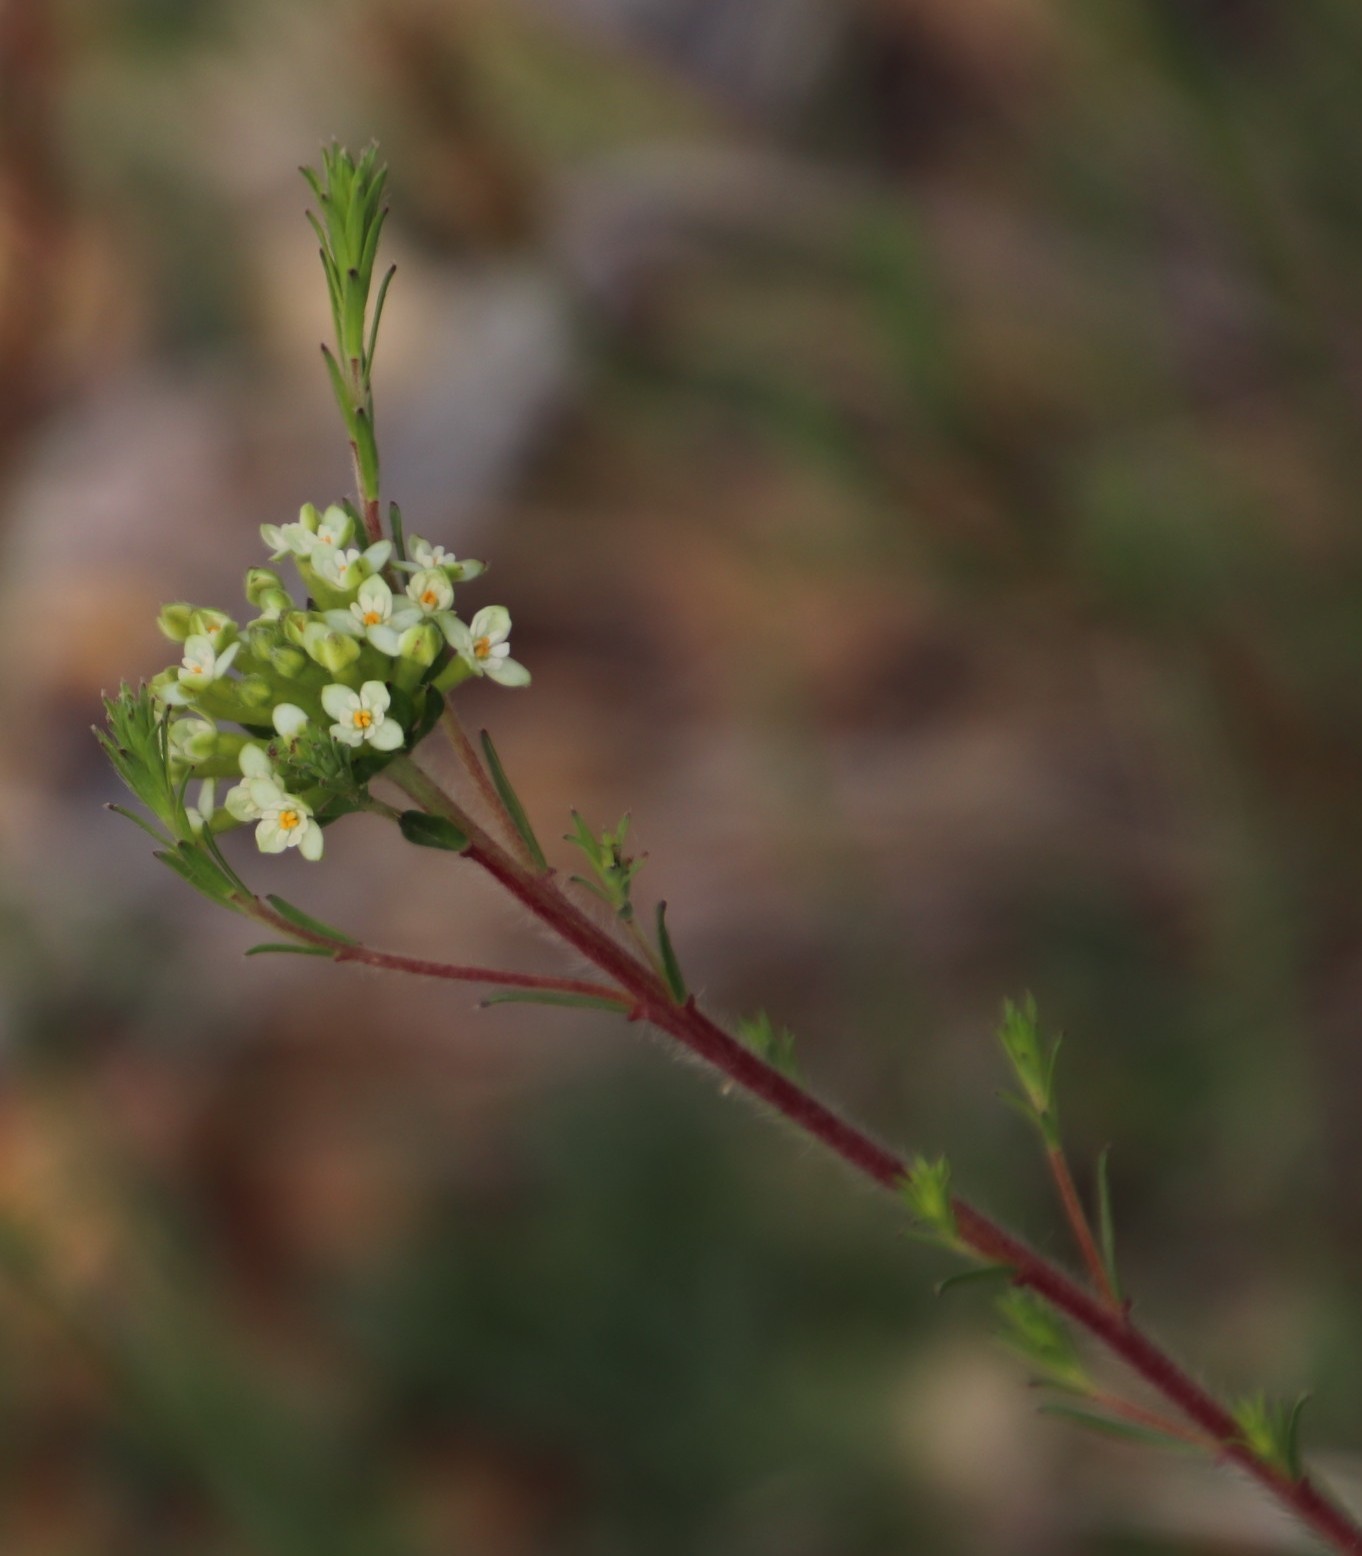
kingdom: Plantae
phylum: Tracheophyta
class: Magnoliopsida
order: Malvales
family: Thymelaeaceae
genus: Gnidia
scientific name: Gnidia squarrosa
